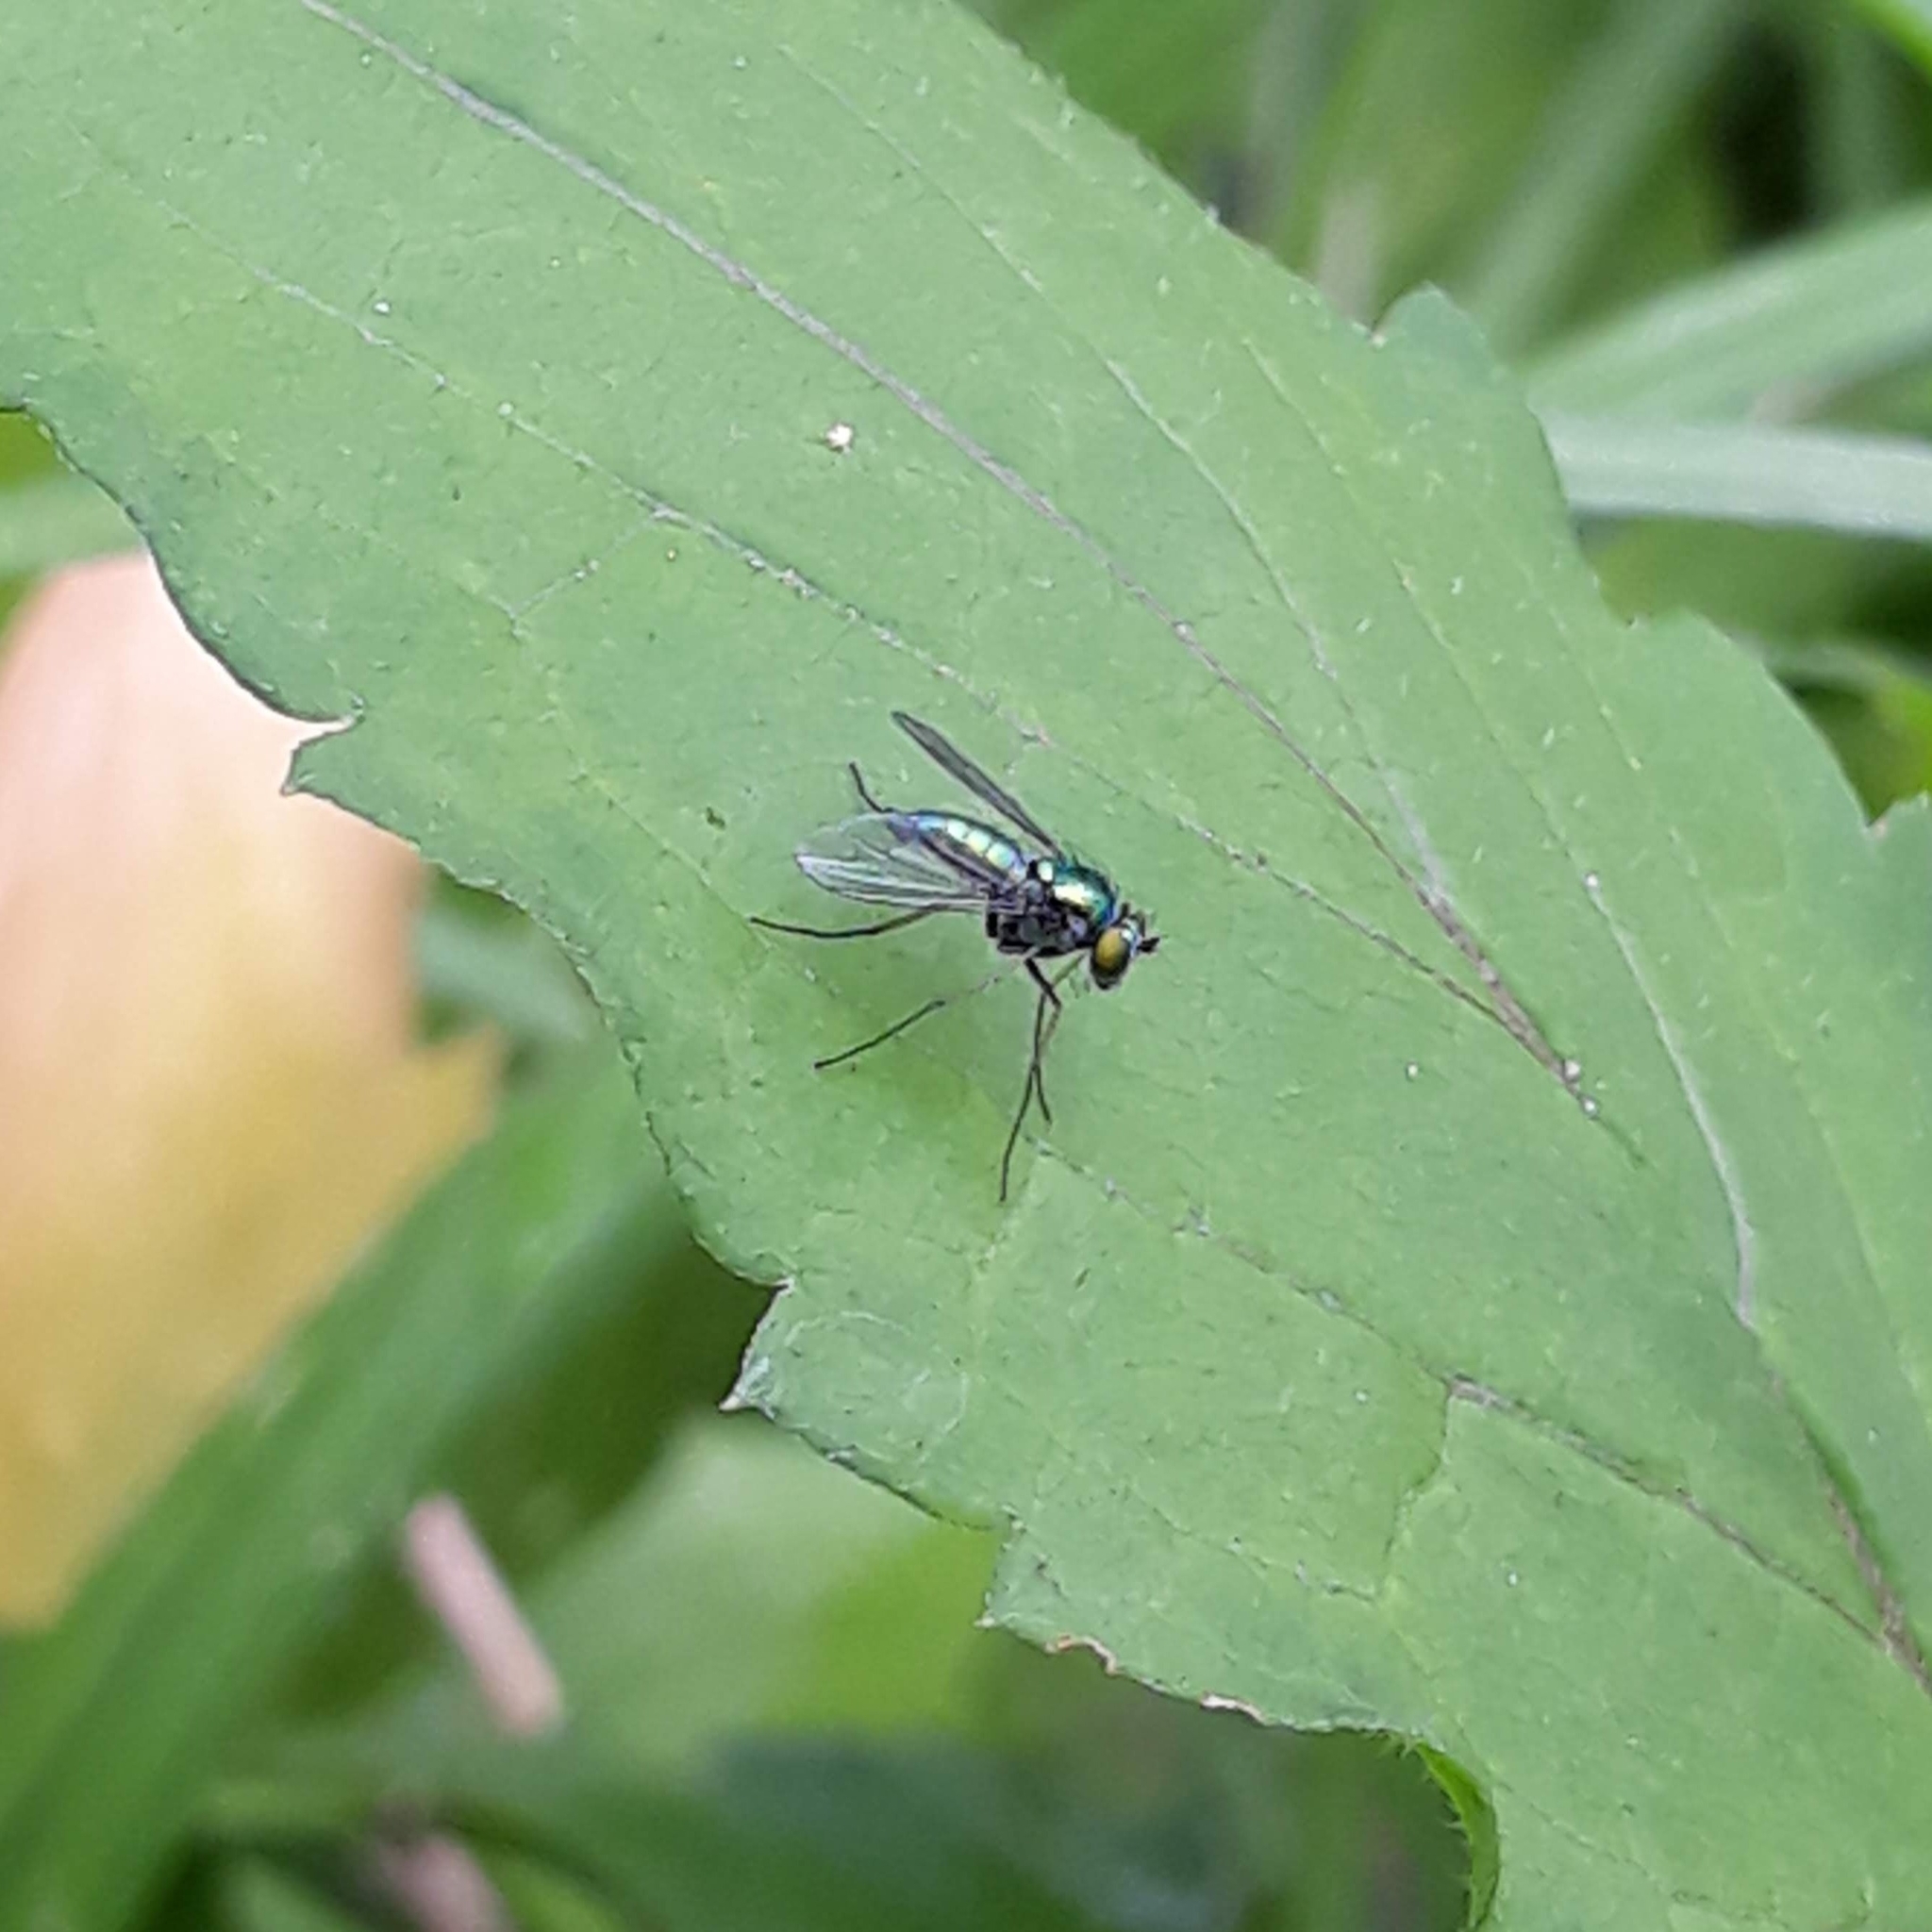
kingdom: Animalia
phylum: Arthropoda
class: Insecta
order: Diptera
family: Dolichopodidae
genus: Condylostylus
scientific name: Condylostylus
